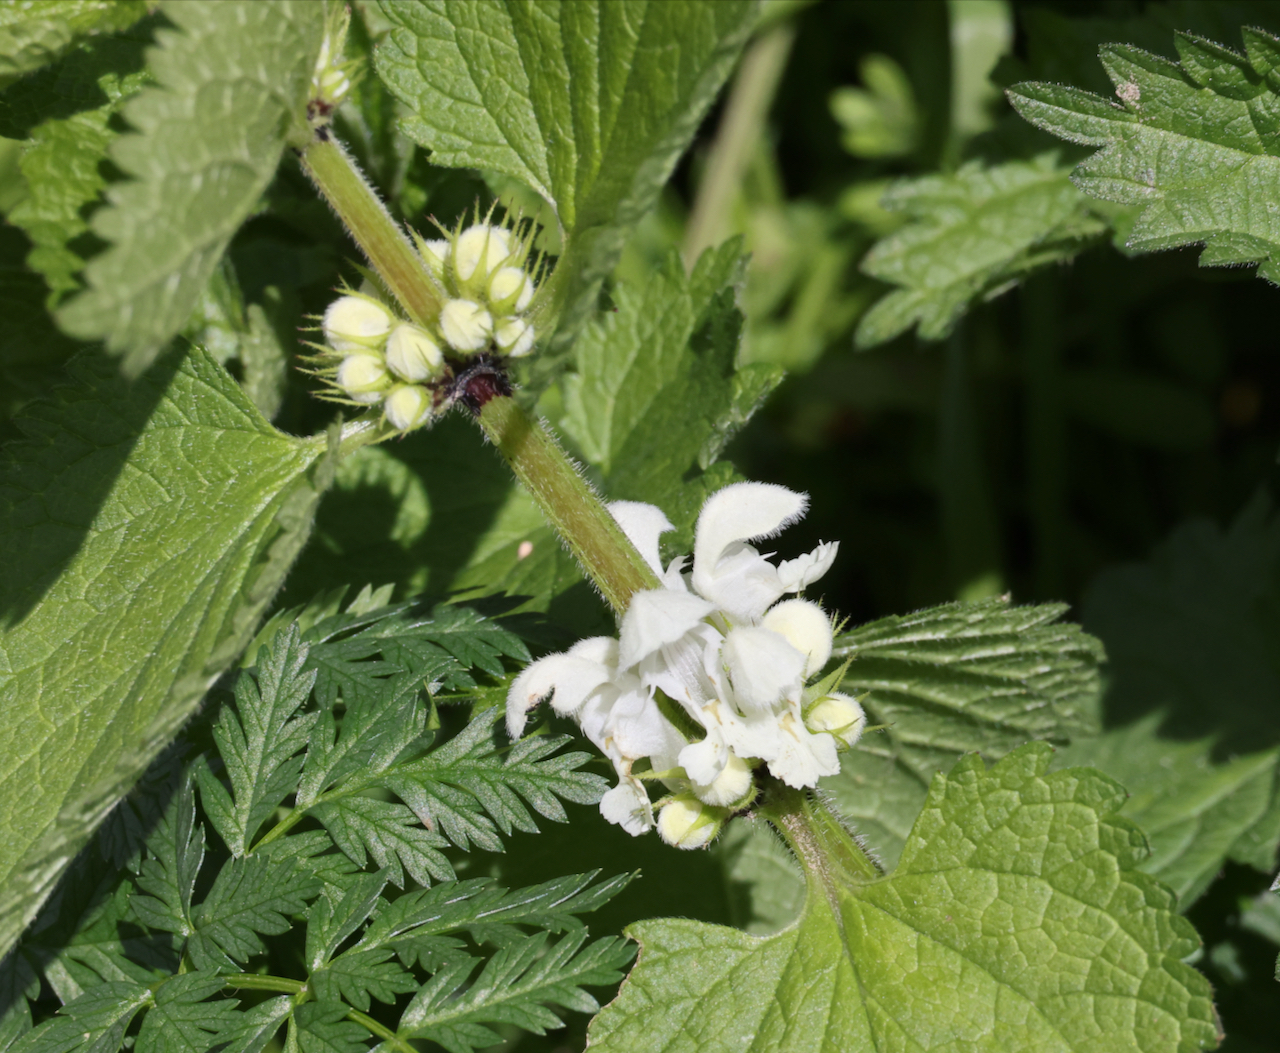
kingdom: Plantae
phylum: Tracheophyta
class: Magnoliopsida
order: Lamiales
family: Lamiaceae
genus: Lamium
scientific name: Lamium album
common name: White dead-nettle
